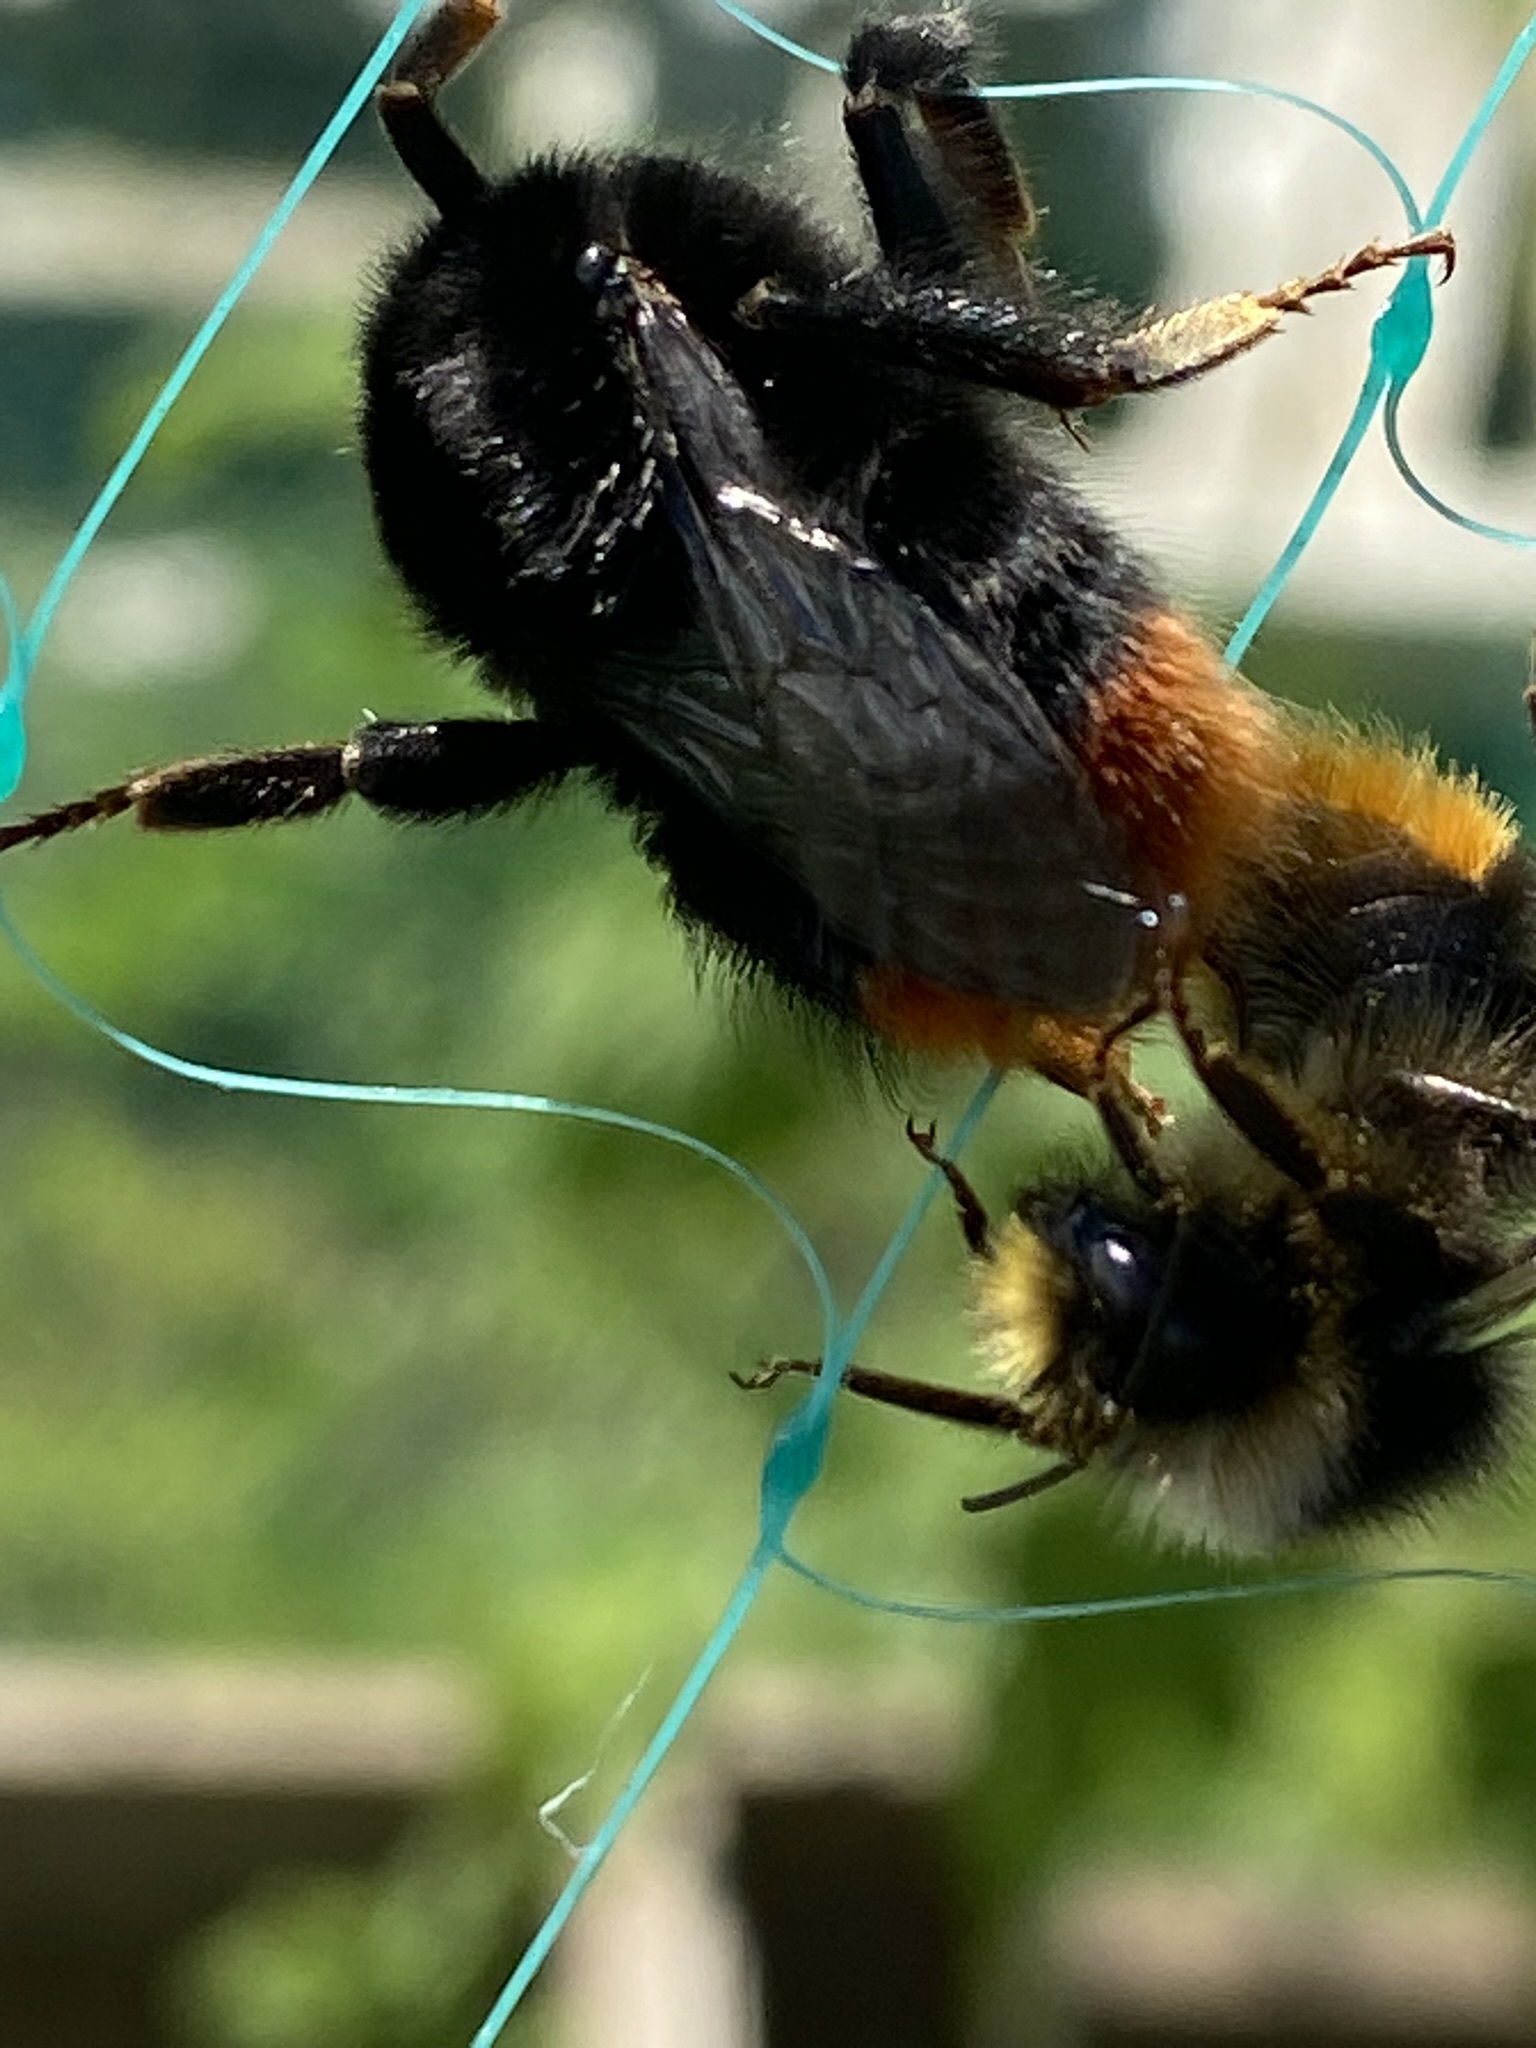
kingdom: Animalia
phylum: Arthropoda
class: Insecta
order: Hymenoptera
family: Apidae
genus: Bombus
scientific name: Bombus lapidarius
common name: Large red-tailed humble-bee
